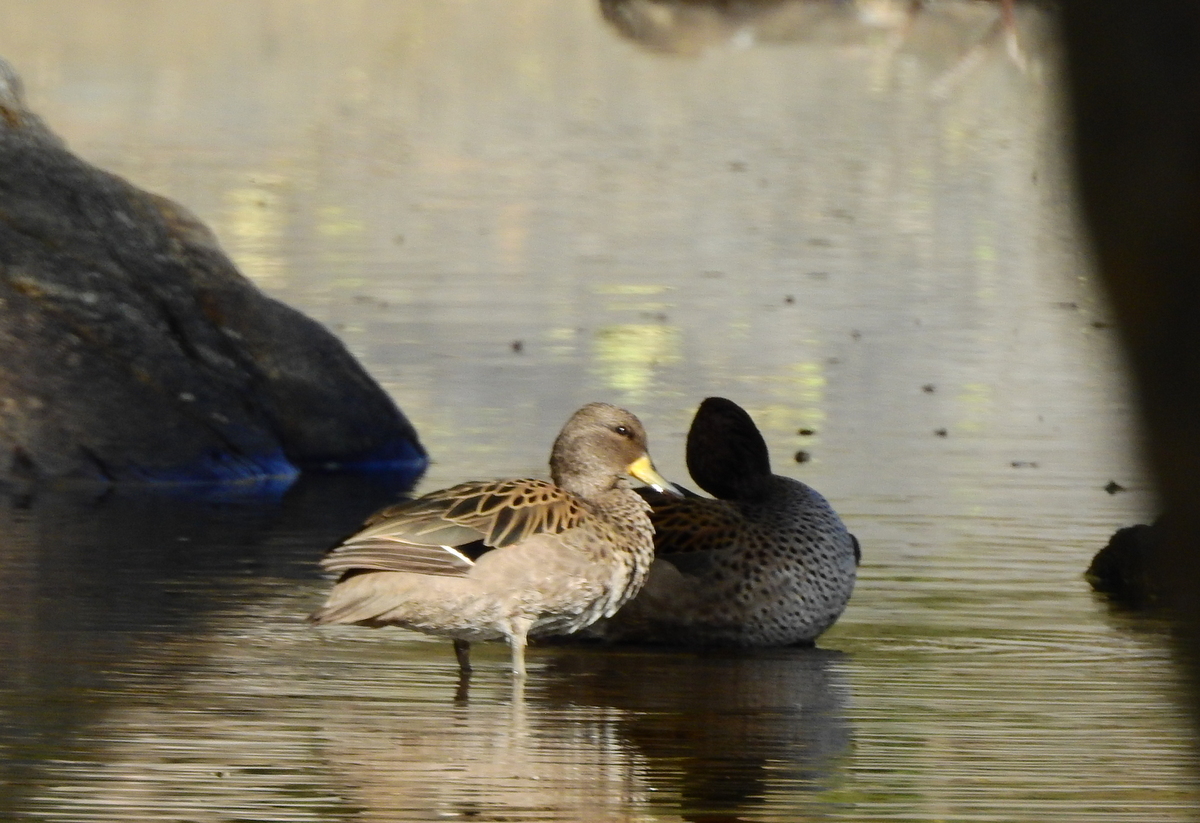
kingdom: Animalia
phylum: Chordata
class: Aves
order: Anseriformes
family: Anatidae
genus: Anas
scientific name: Anas flavirostris
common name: Yellow-billed teal
